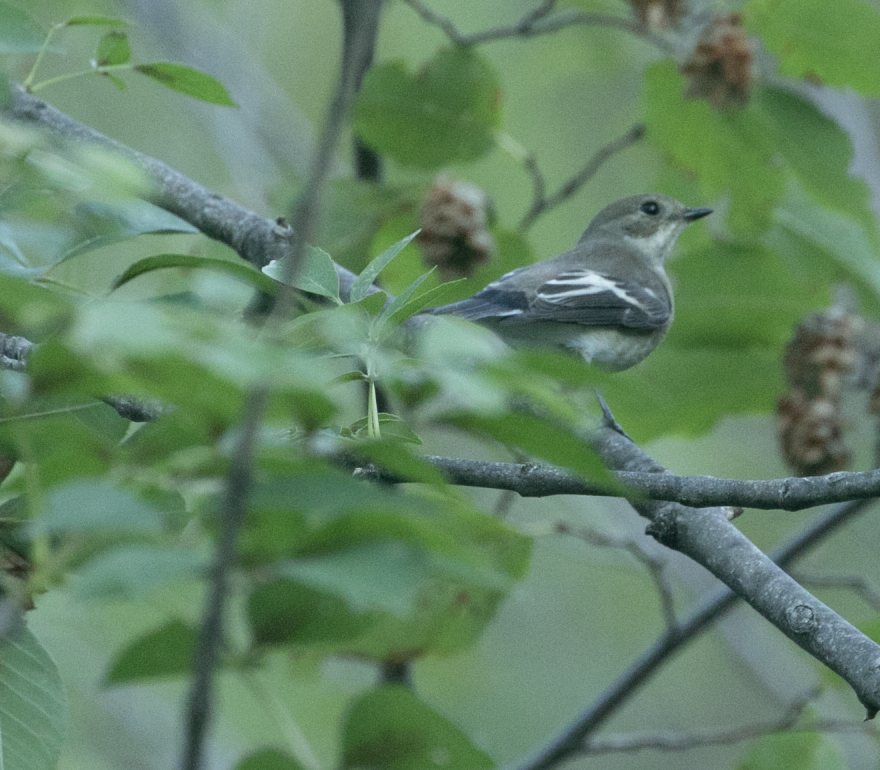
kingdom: Animalia
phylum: Chordata
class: Aves
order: Passeriformes
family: Muscicapidae
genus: Ficedula
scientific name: Ficedula hypoleuca
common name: European pied flycatcher
